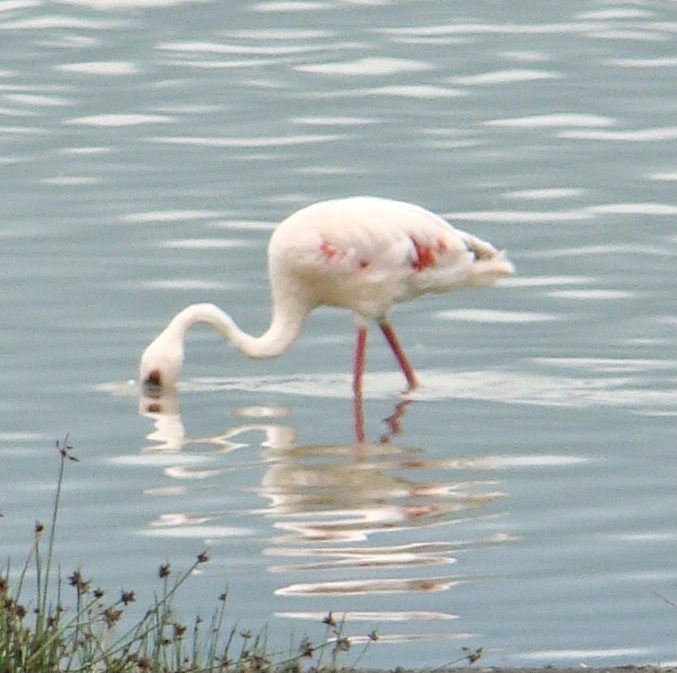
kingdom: Animalia
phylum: Chordata
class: Aves
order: Phoenicopteriformes
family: Phoenicopteridae
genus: Phoeniconaias
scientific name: Phoeniconaias minor
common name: Lesser flamingo
